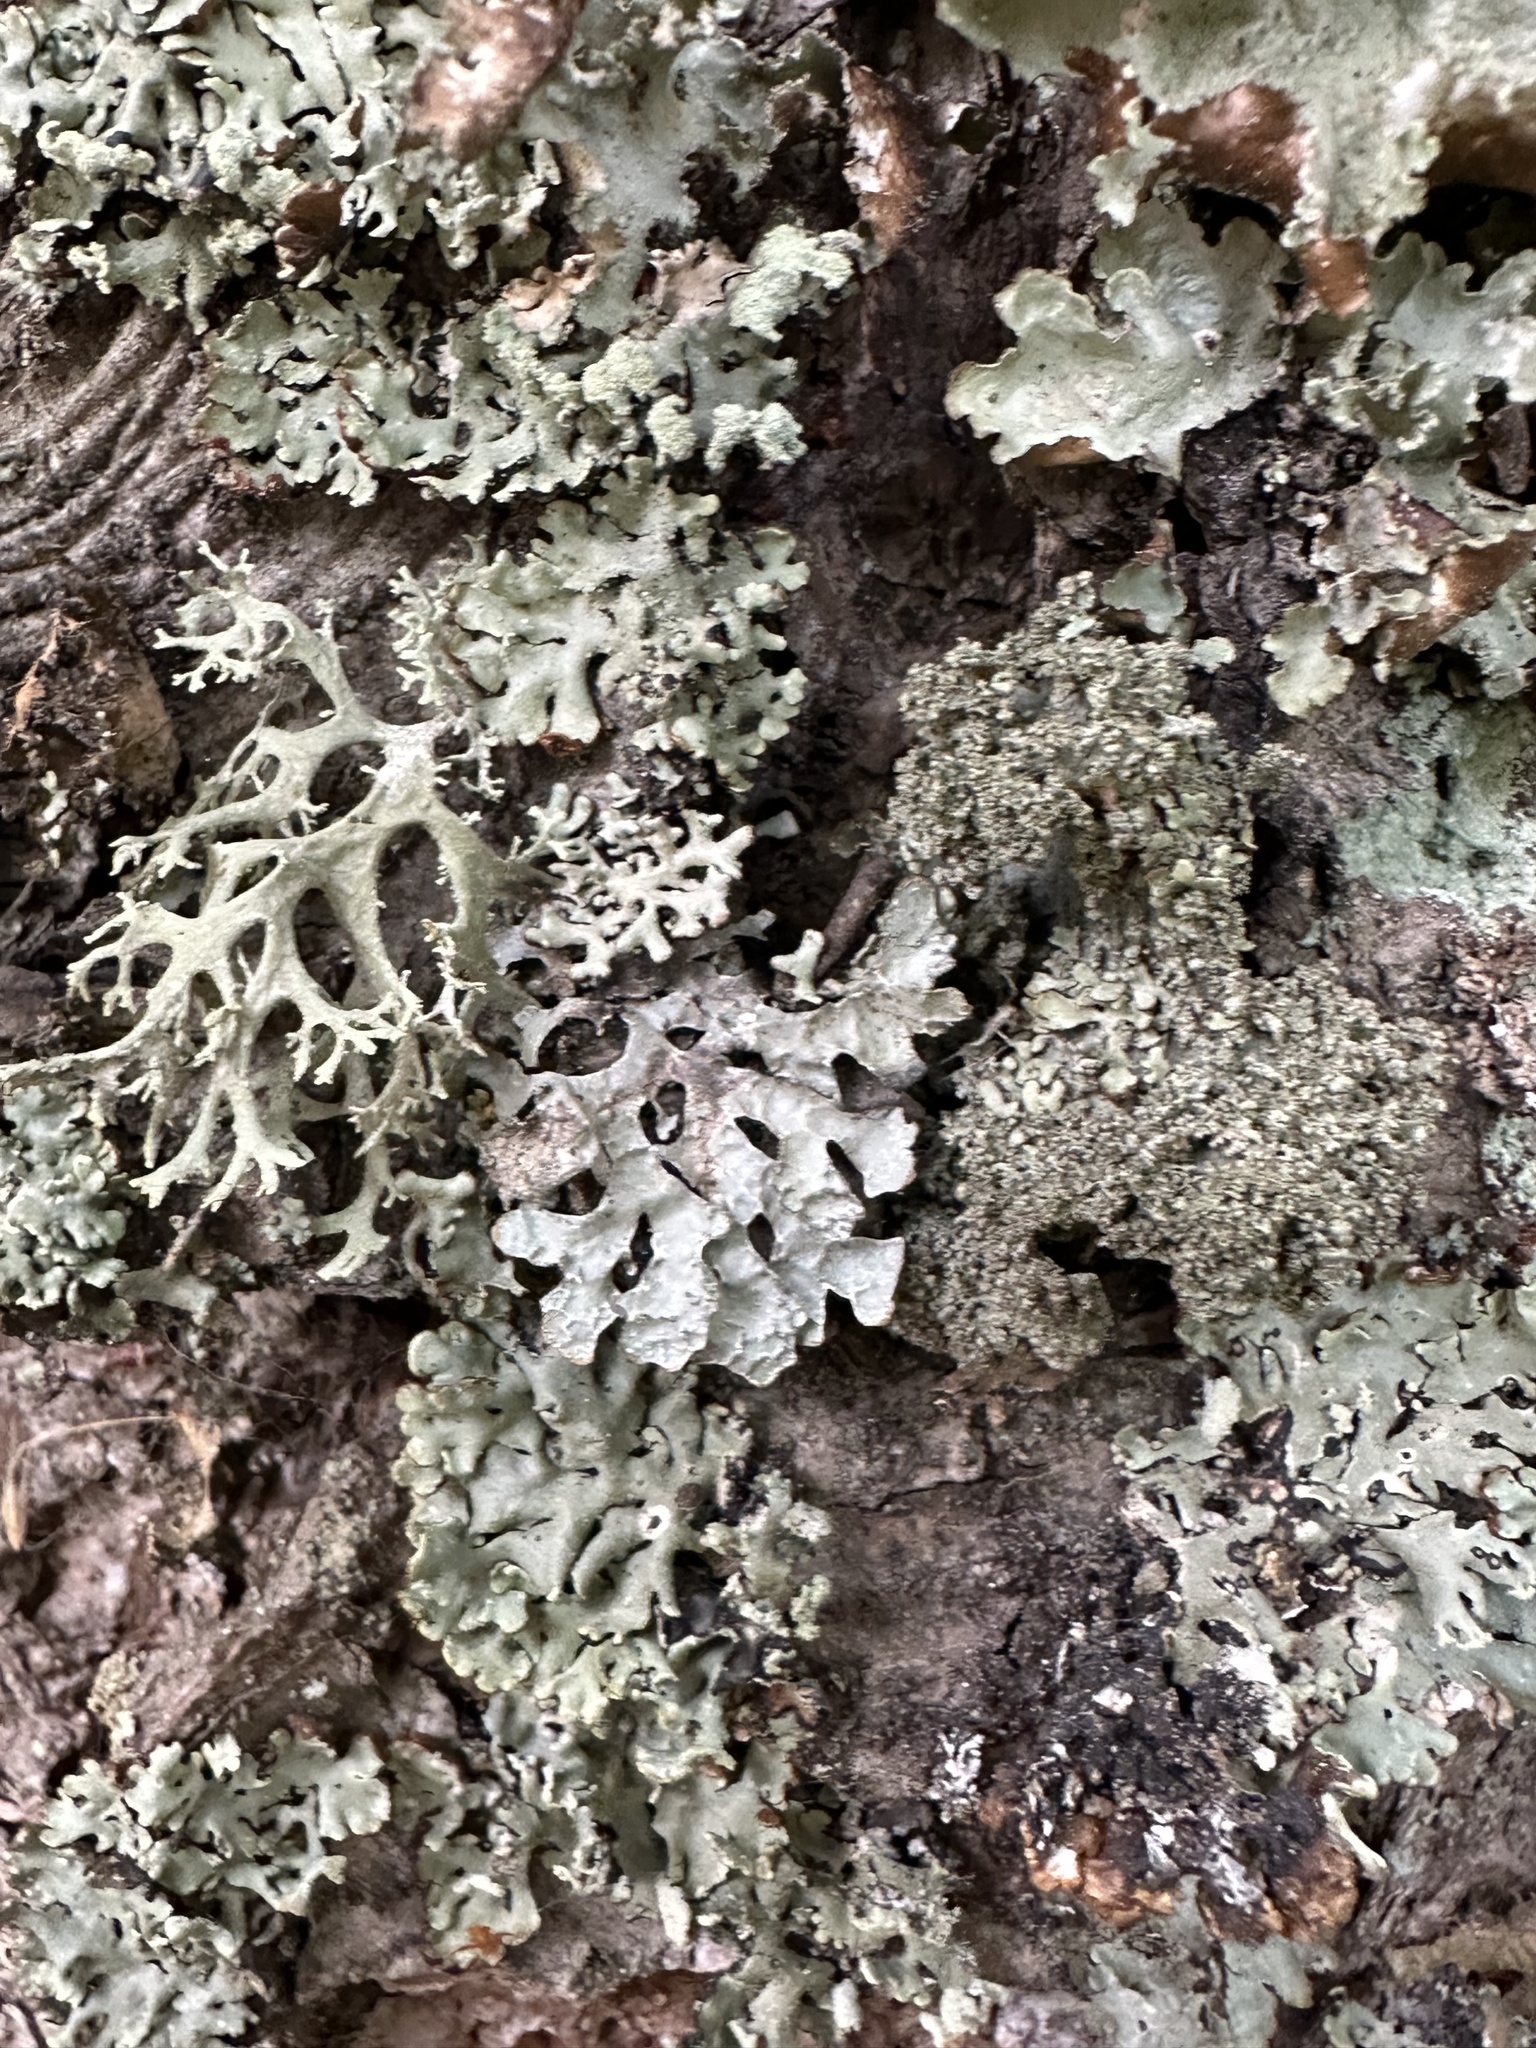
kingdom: Fungi
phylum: Ascomycota
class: Lecanoromycetes
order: Lecanorales
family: Parmeliaceae
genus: Evernia
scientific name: Evernia prunastri
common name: Oak moss
